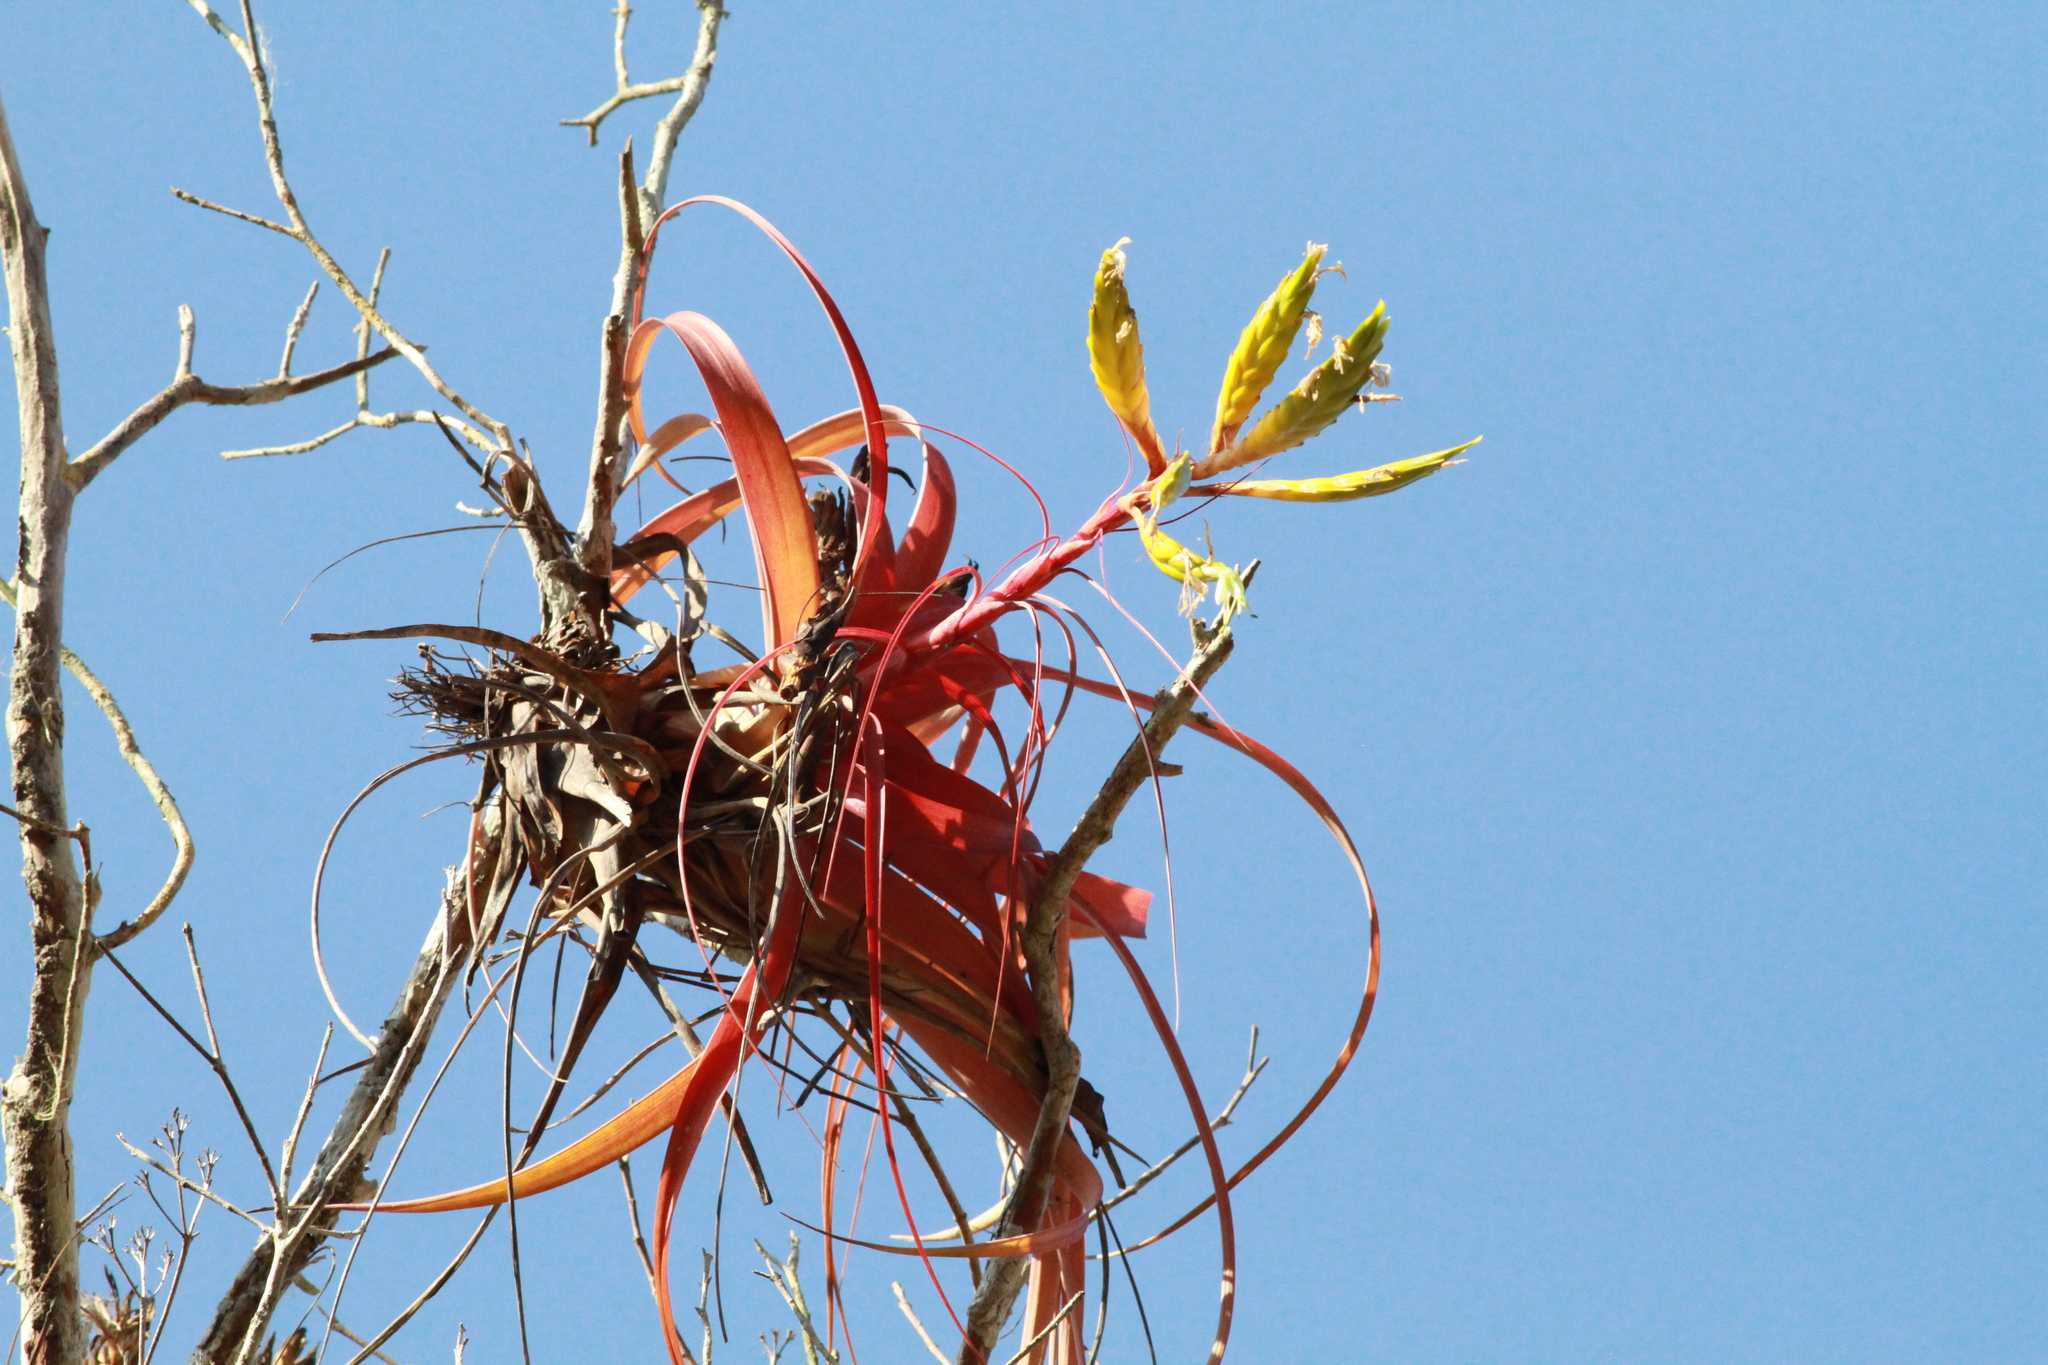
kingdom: Plantae
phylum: Tracheophyta
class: Liliopsida
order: Poales
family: Bromeliaceae
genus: Tillandsia
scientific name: Tillandsia roland-gosselinii
